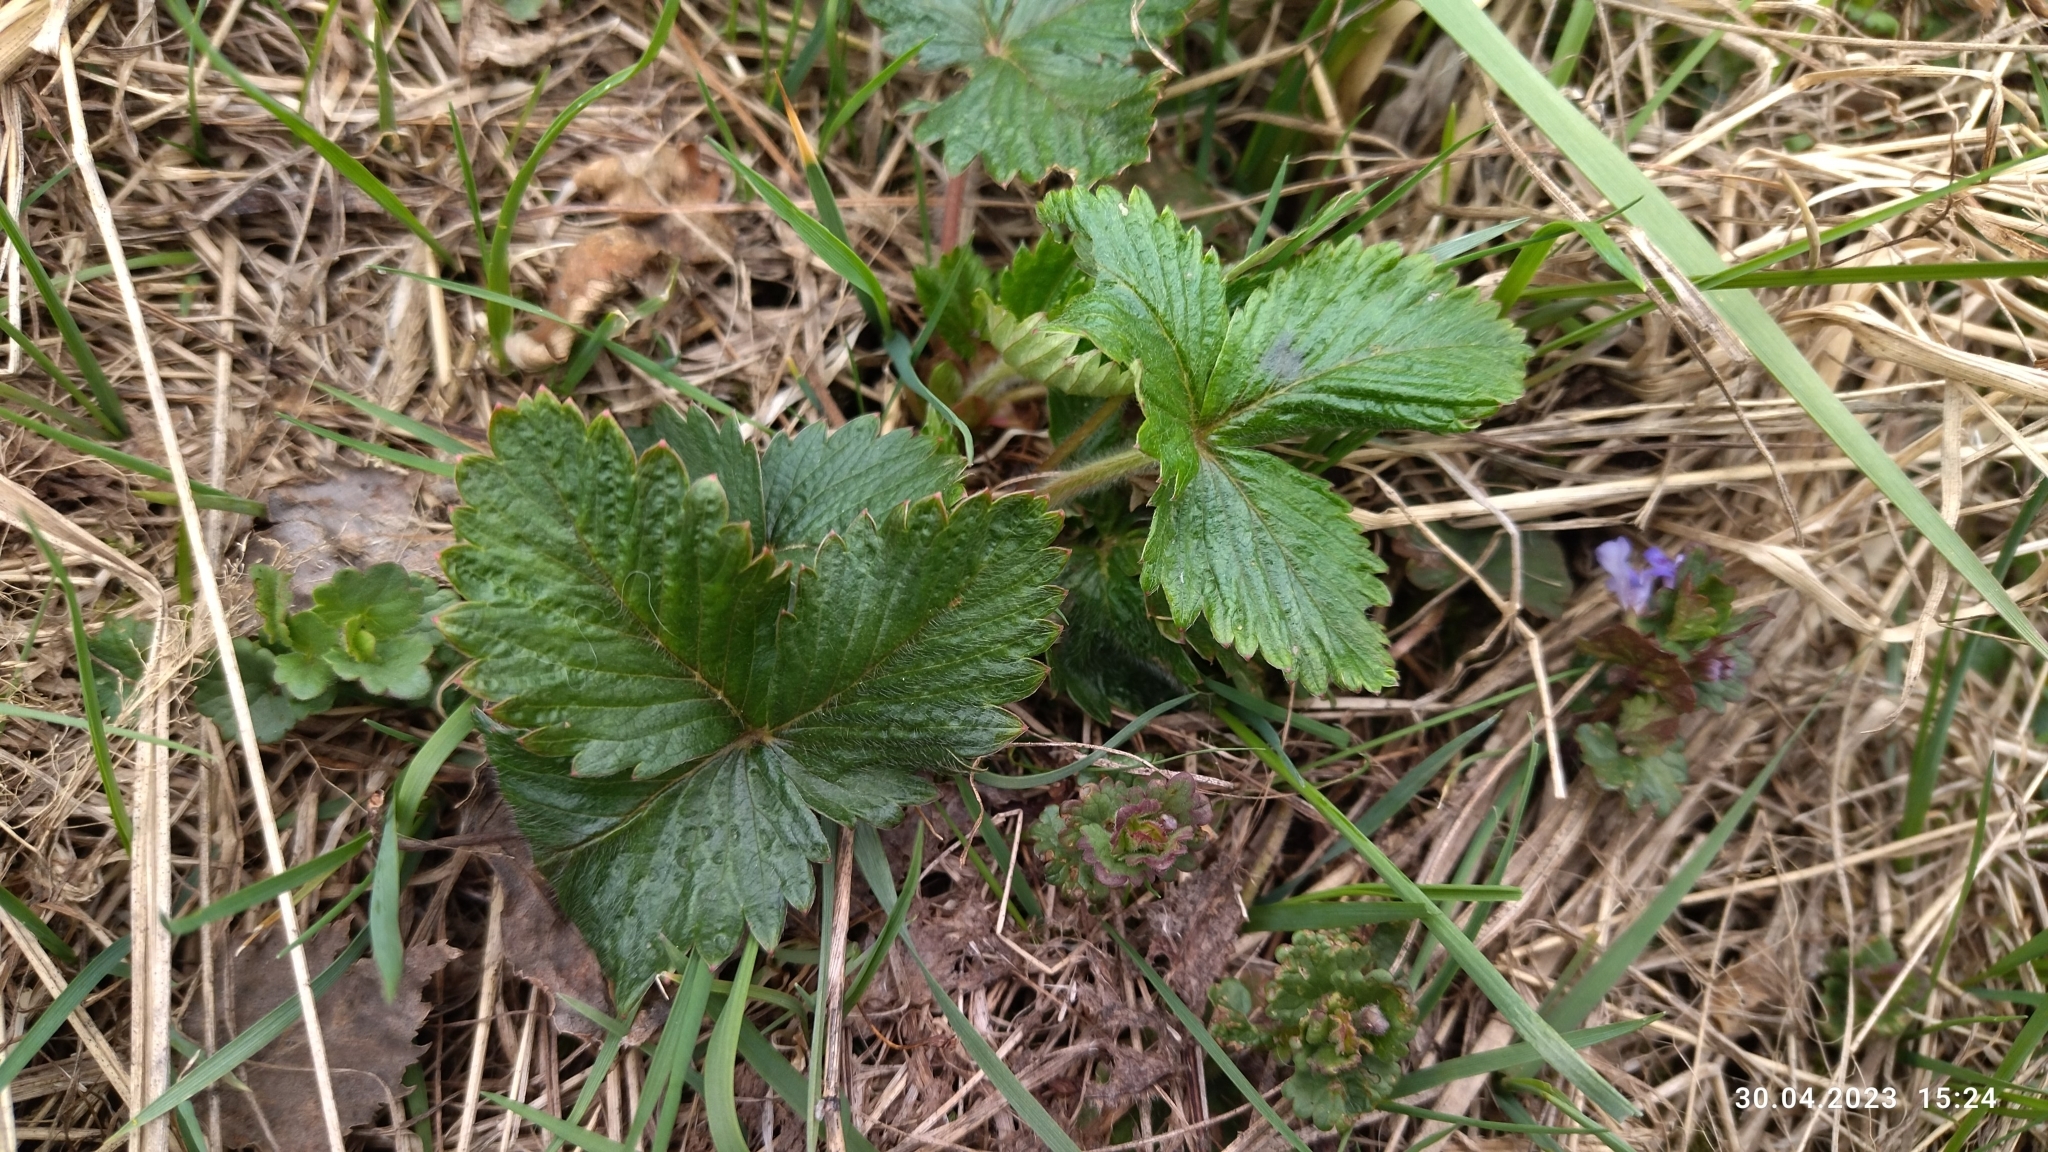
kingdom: Plantae
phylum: Tracheophyta
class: Magnoliopsida
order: Rosales
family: Rosaceae
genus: Fragaria
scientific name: Fragaria vesca
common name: Wild strawberry
